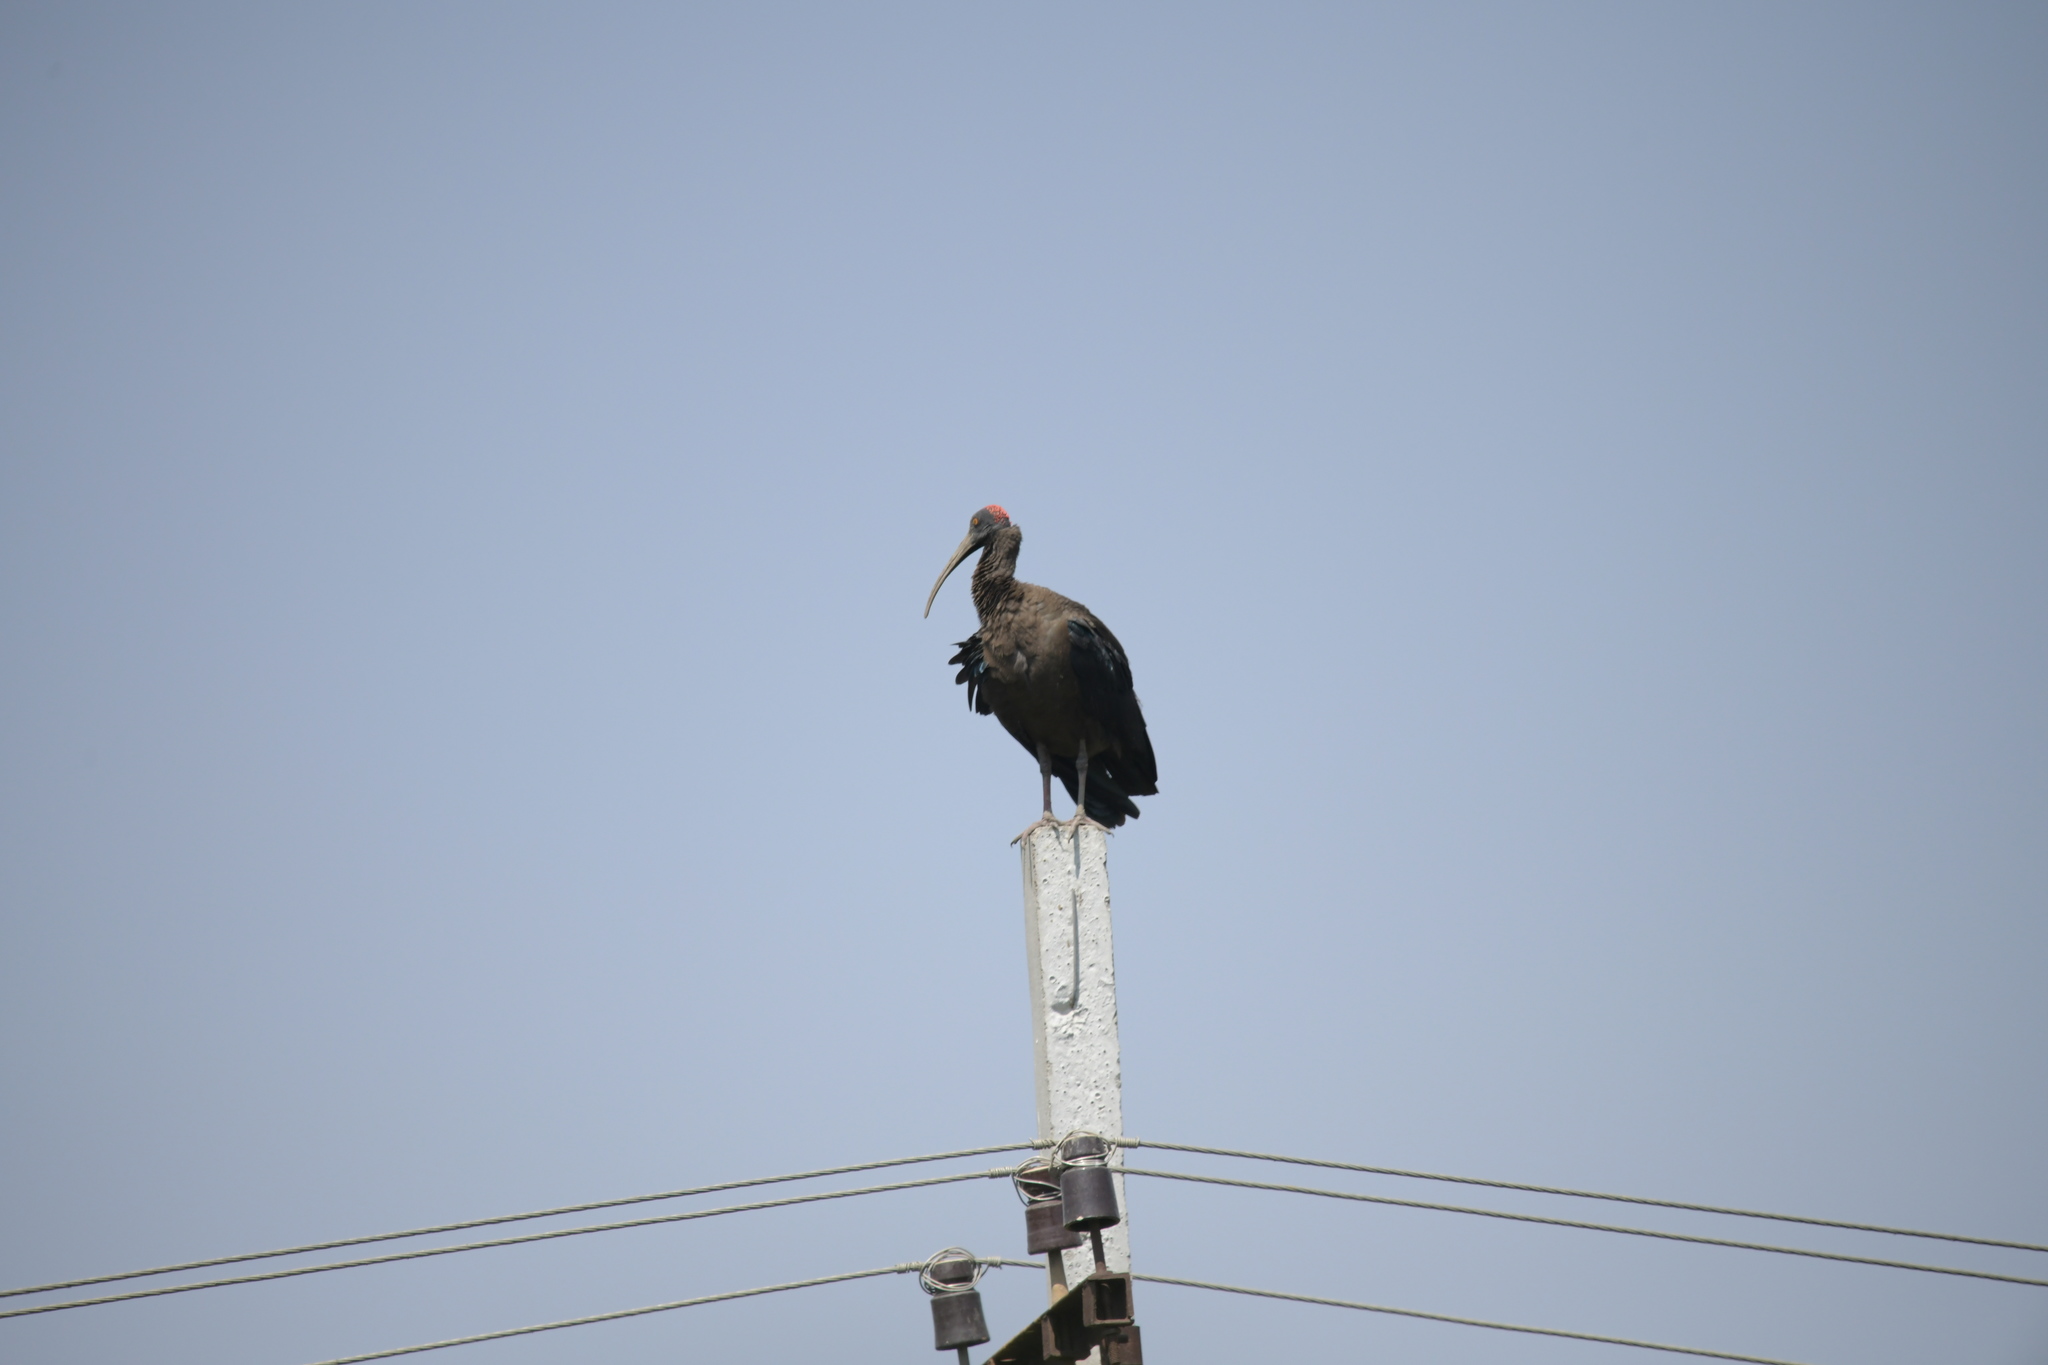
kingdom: Animalia
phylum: Chordata
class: Aves
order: Pelecaniformes
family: Threskiornithidae
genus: Pseudibis
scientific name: Pseudibis papillosa
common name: Red-naped ibis
